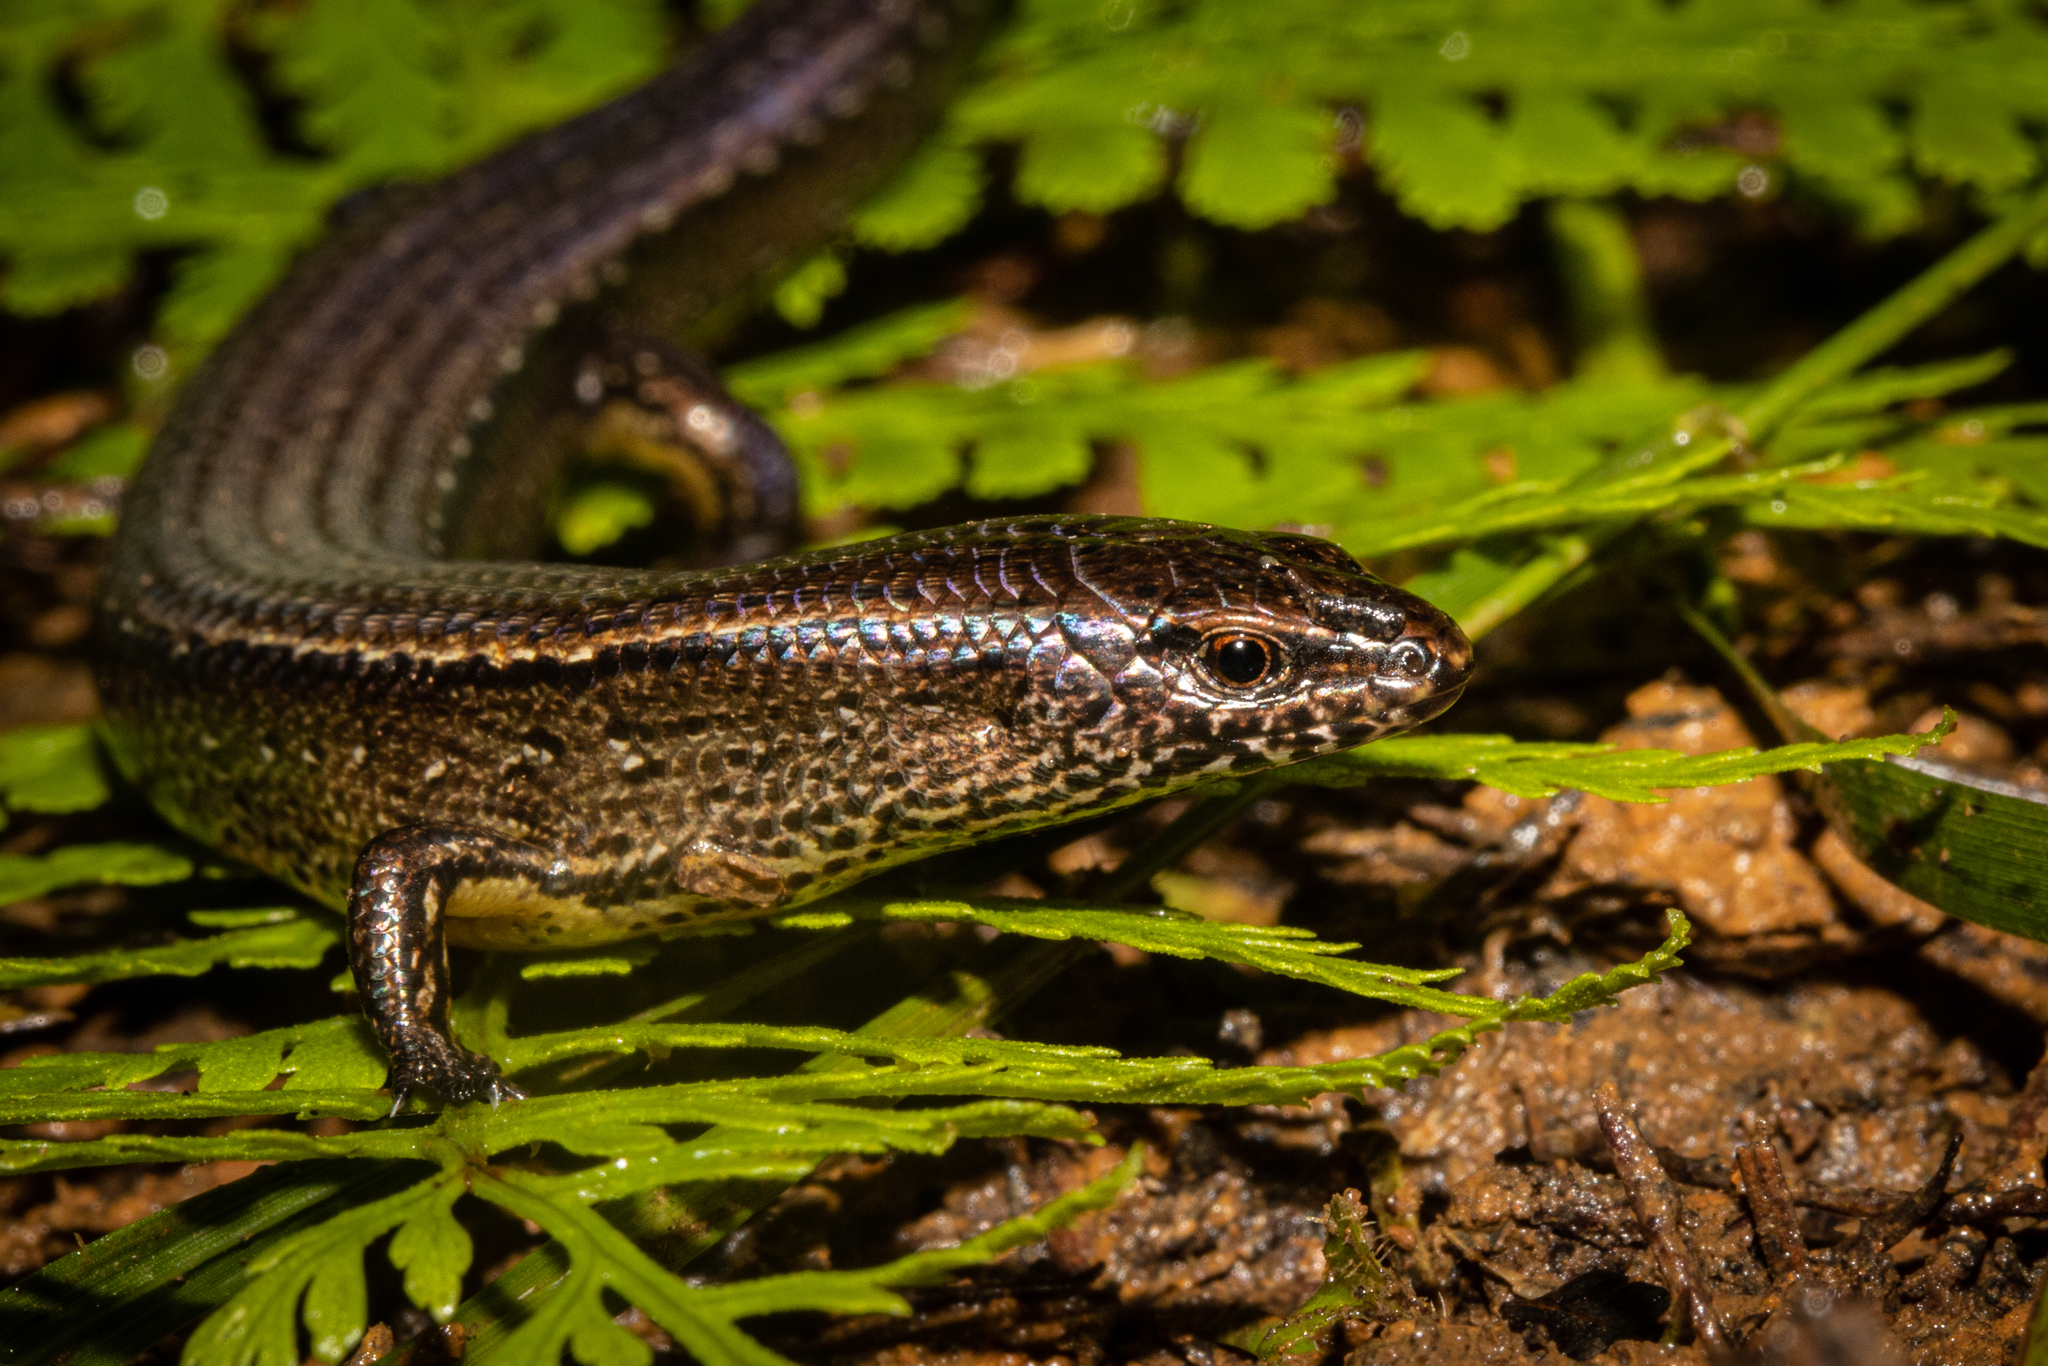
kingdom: Animalia
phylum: Chordata
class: Squamata
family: Scincidae
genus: Oligosoma
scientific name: Oligosoma levidensum
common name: Slight skink
